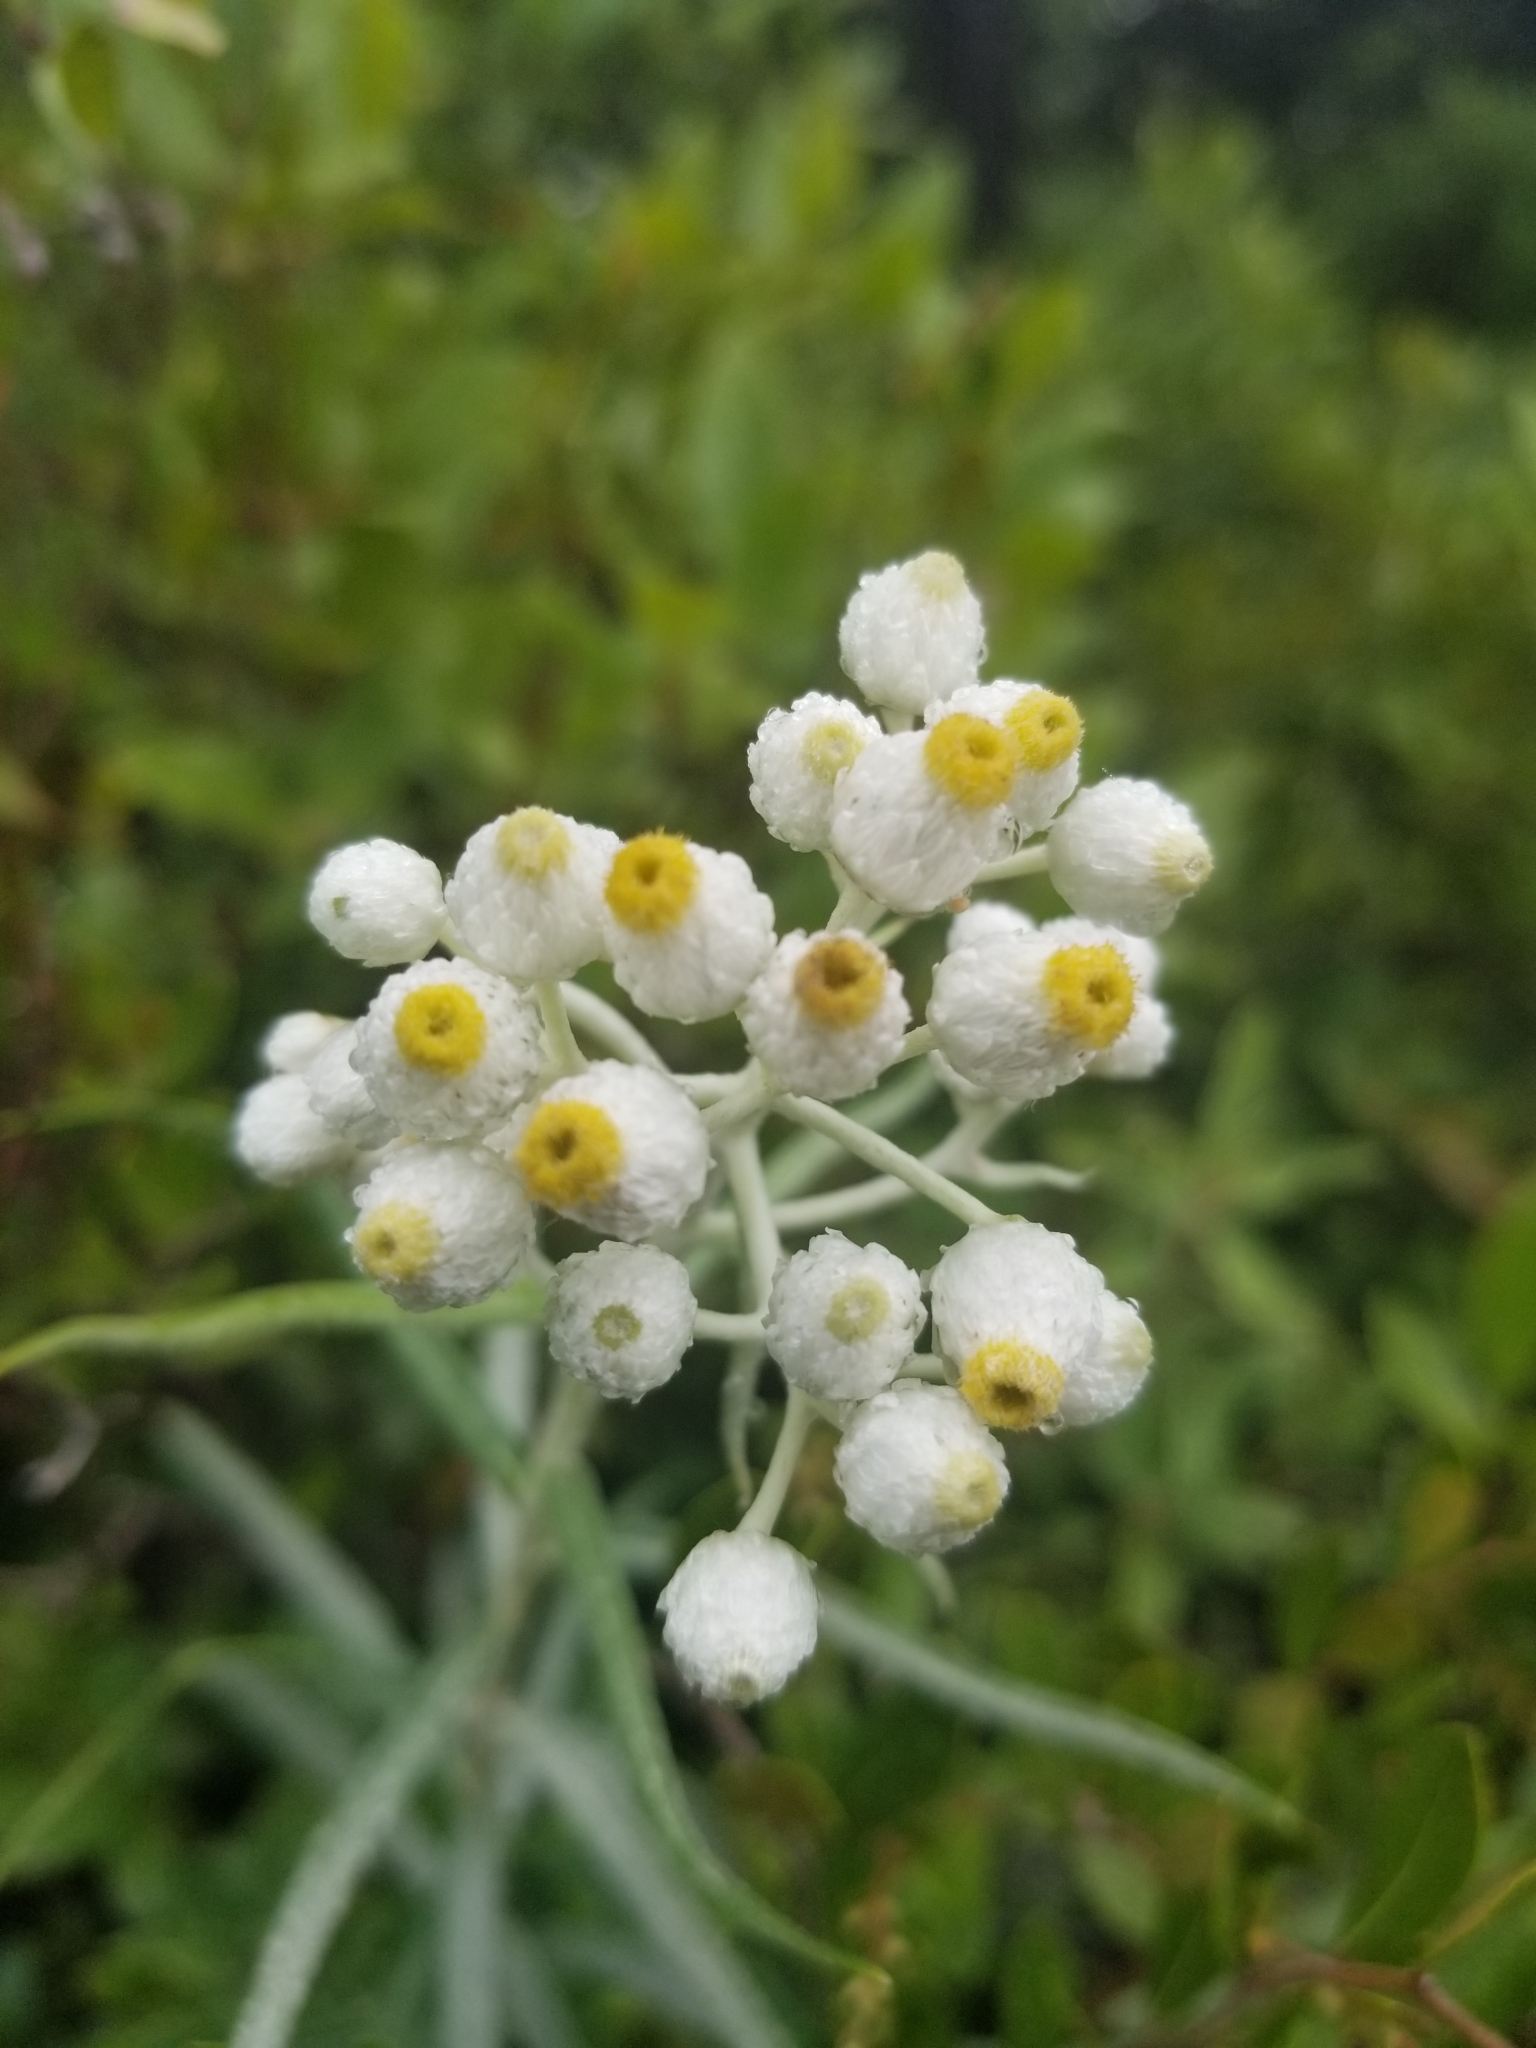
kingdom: Plantae
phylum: Tracheophyta
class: Magnoliopsida
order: Asterales
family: Asteraceae
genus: Anaphalis
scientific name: Anaphalis margaritacea
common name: Pearly everlasting
